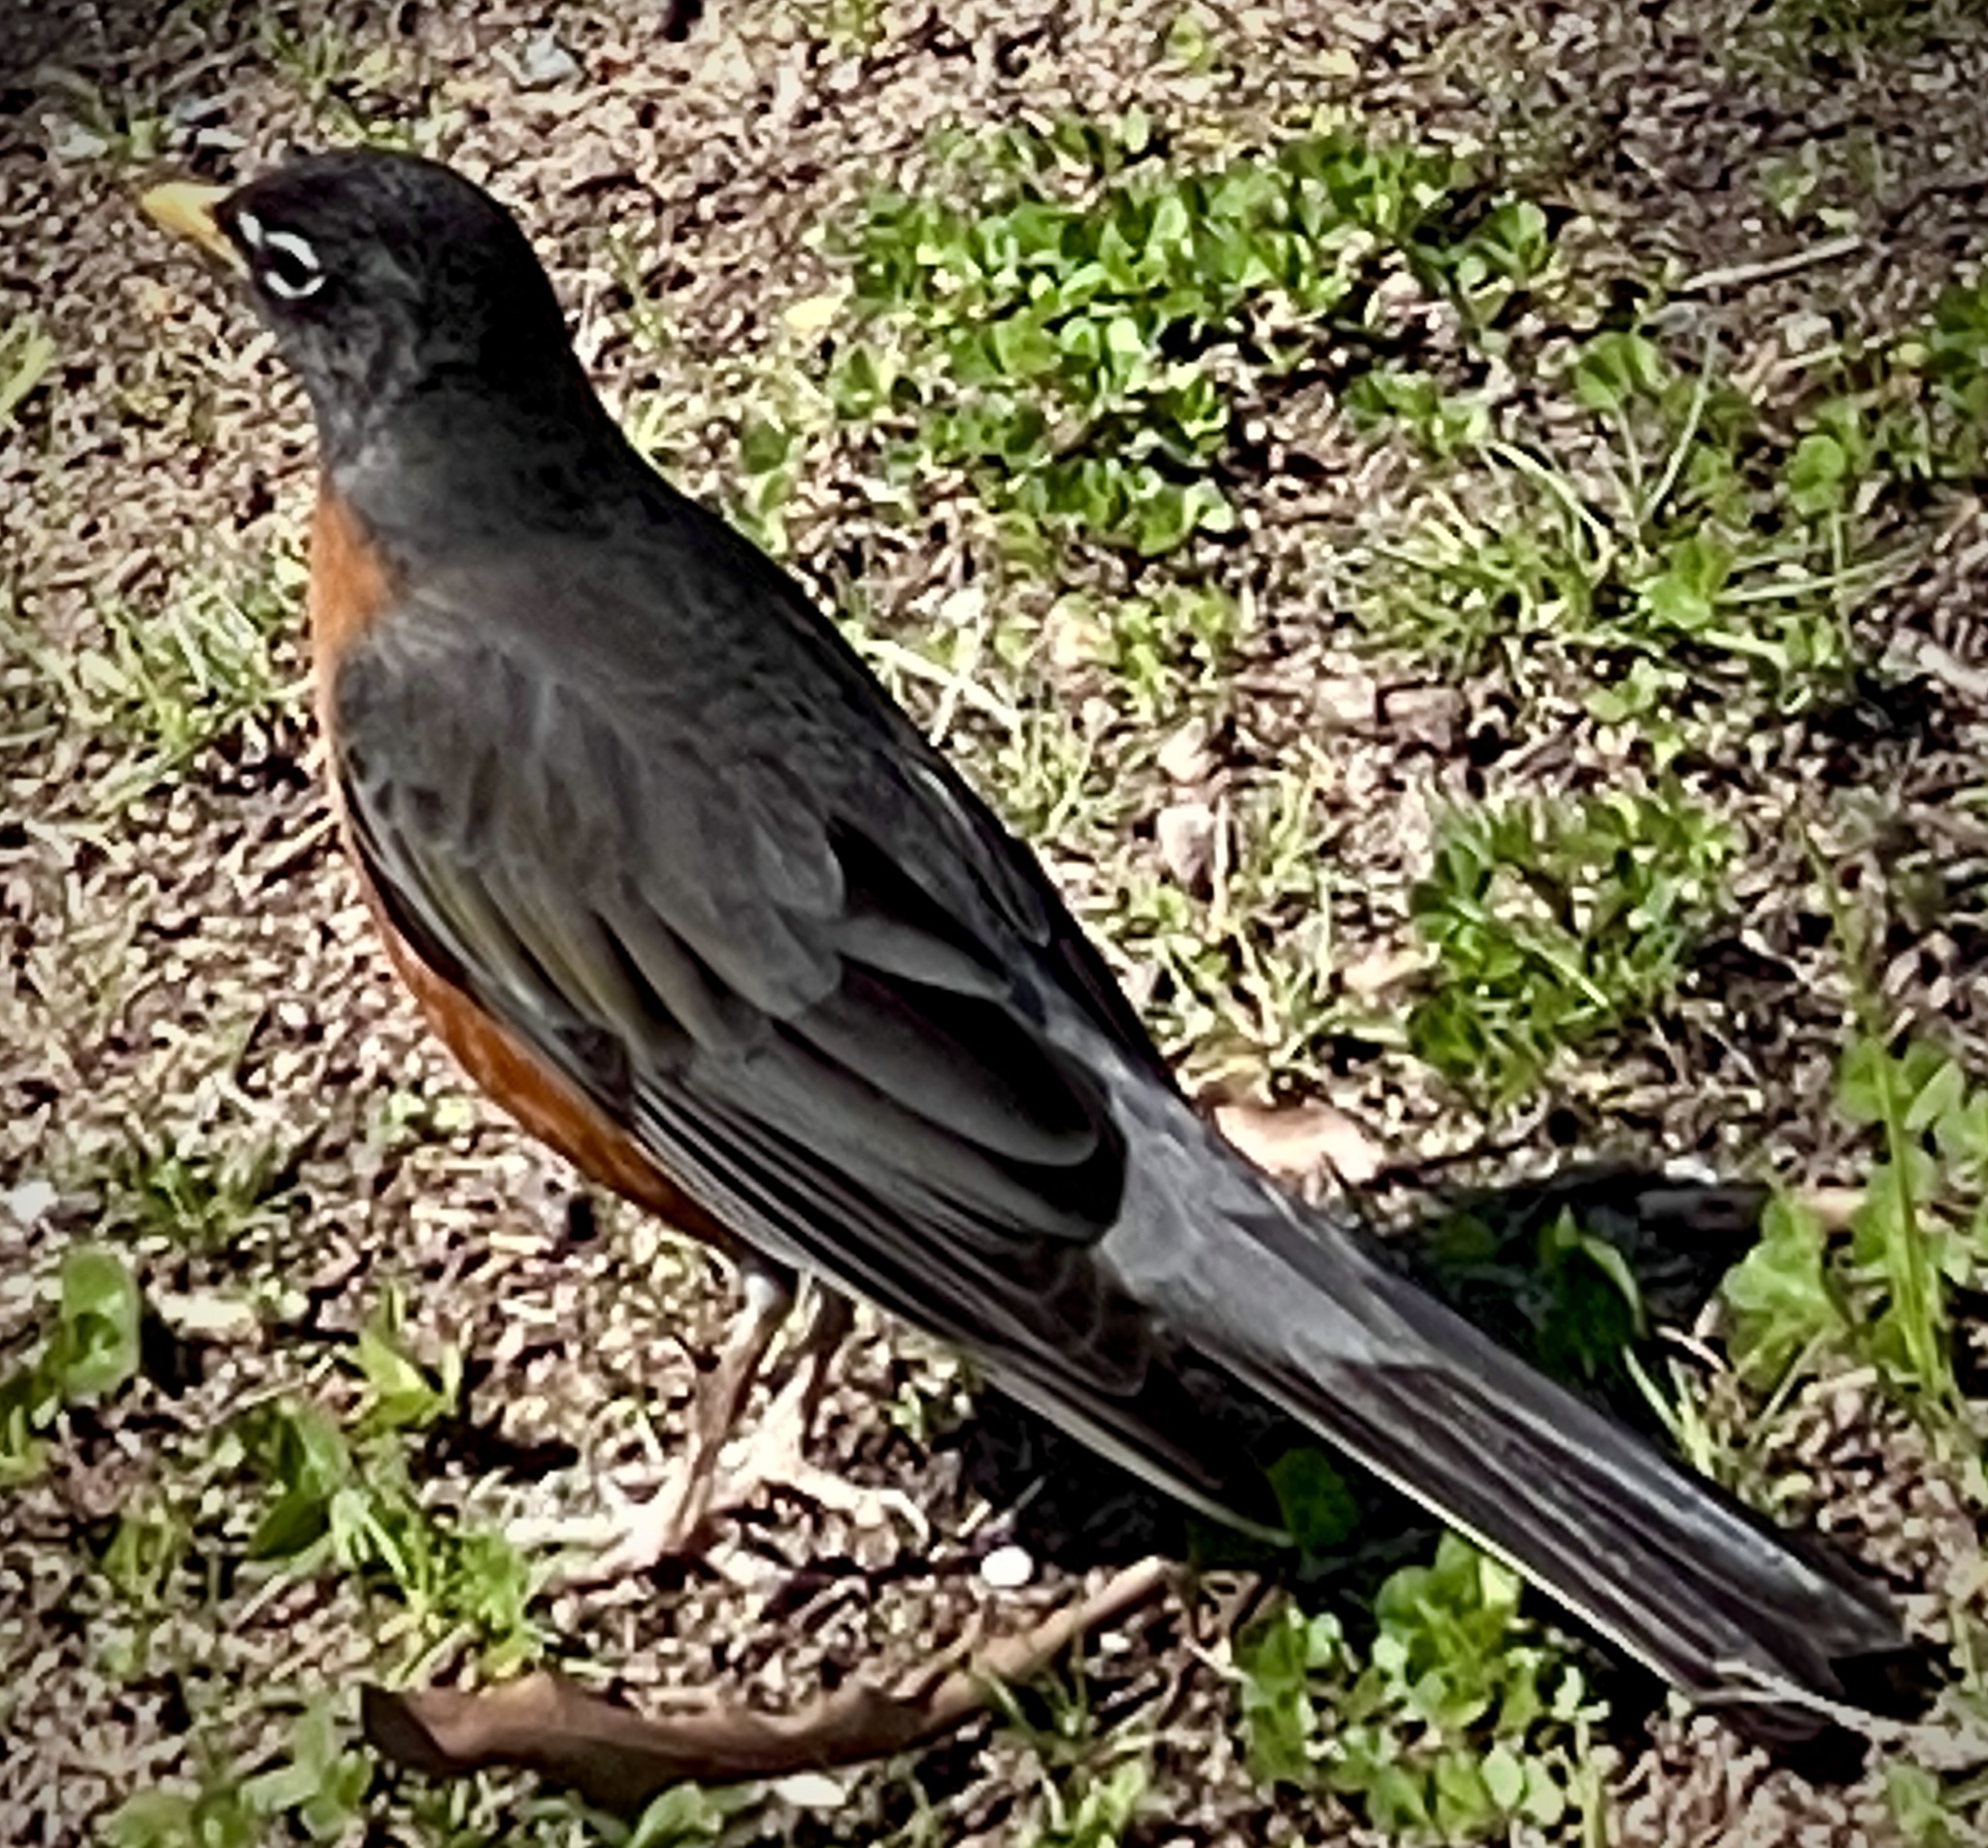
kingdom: Animalia
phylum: Chordata
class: Aves
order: Passeriformes
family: Turdidae
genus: Turdus
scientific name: Turdus migratorius
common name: American robin
